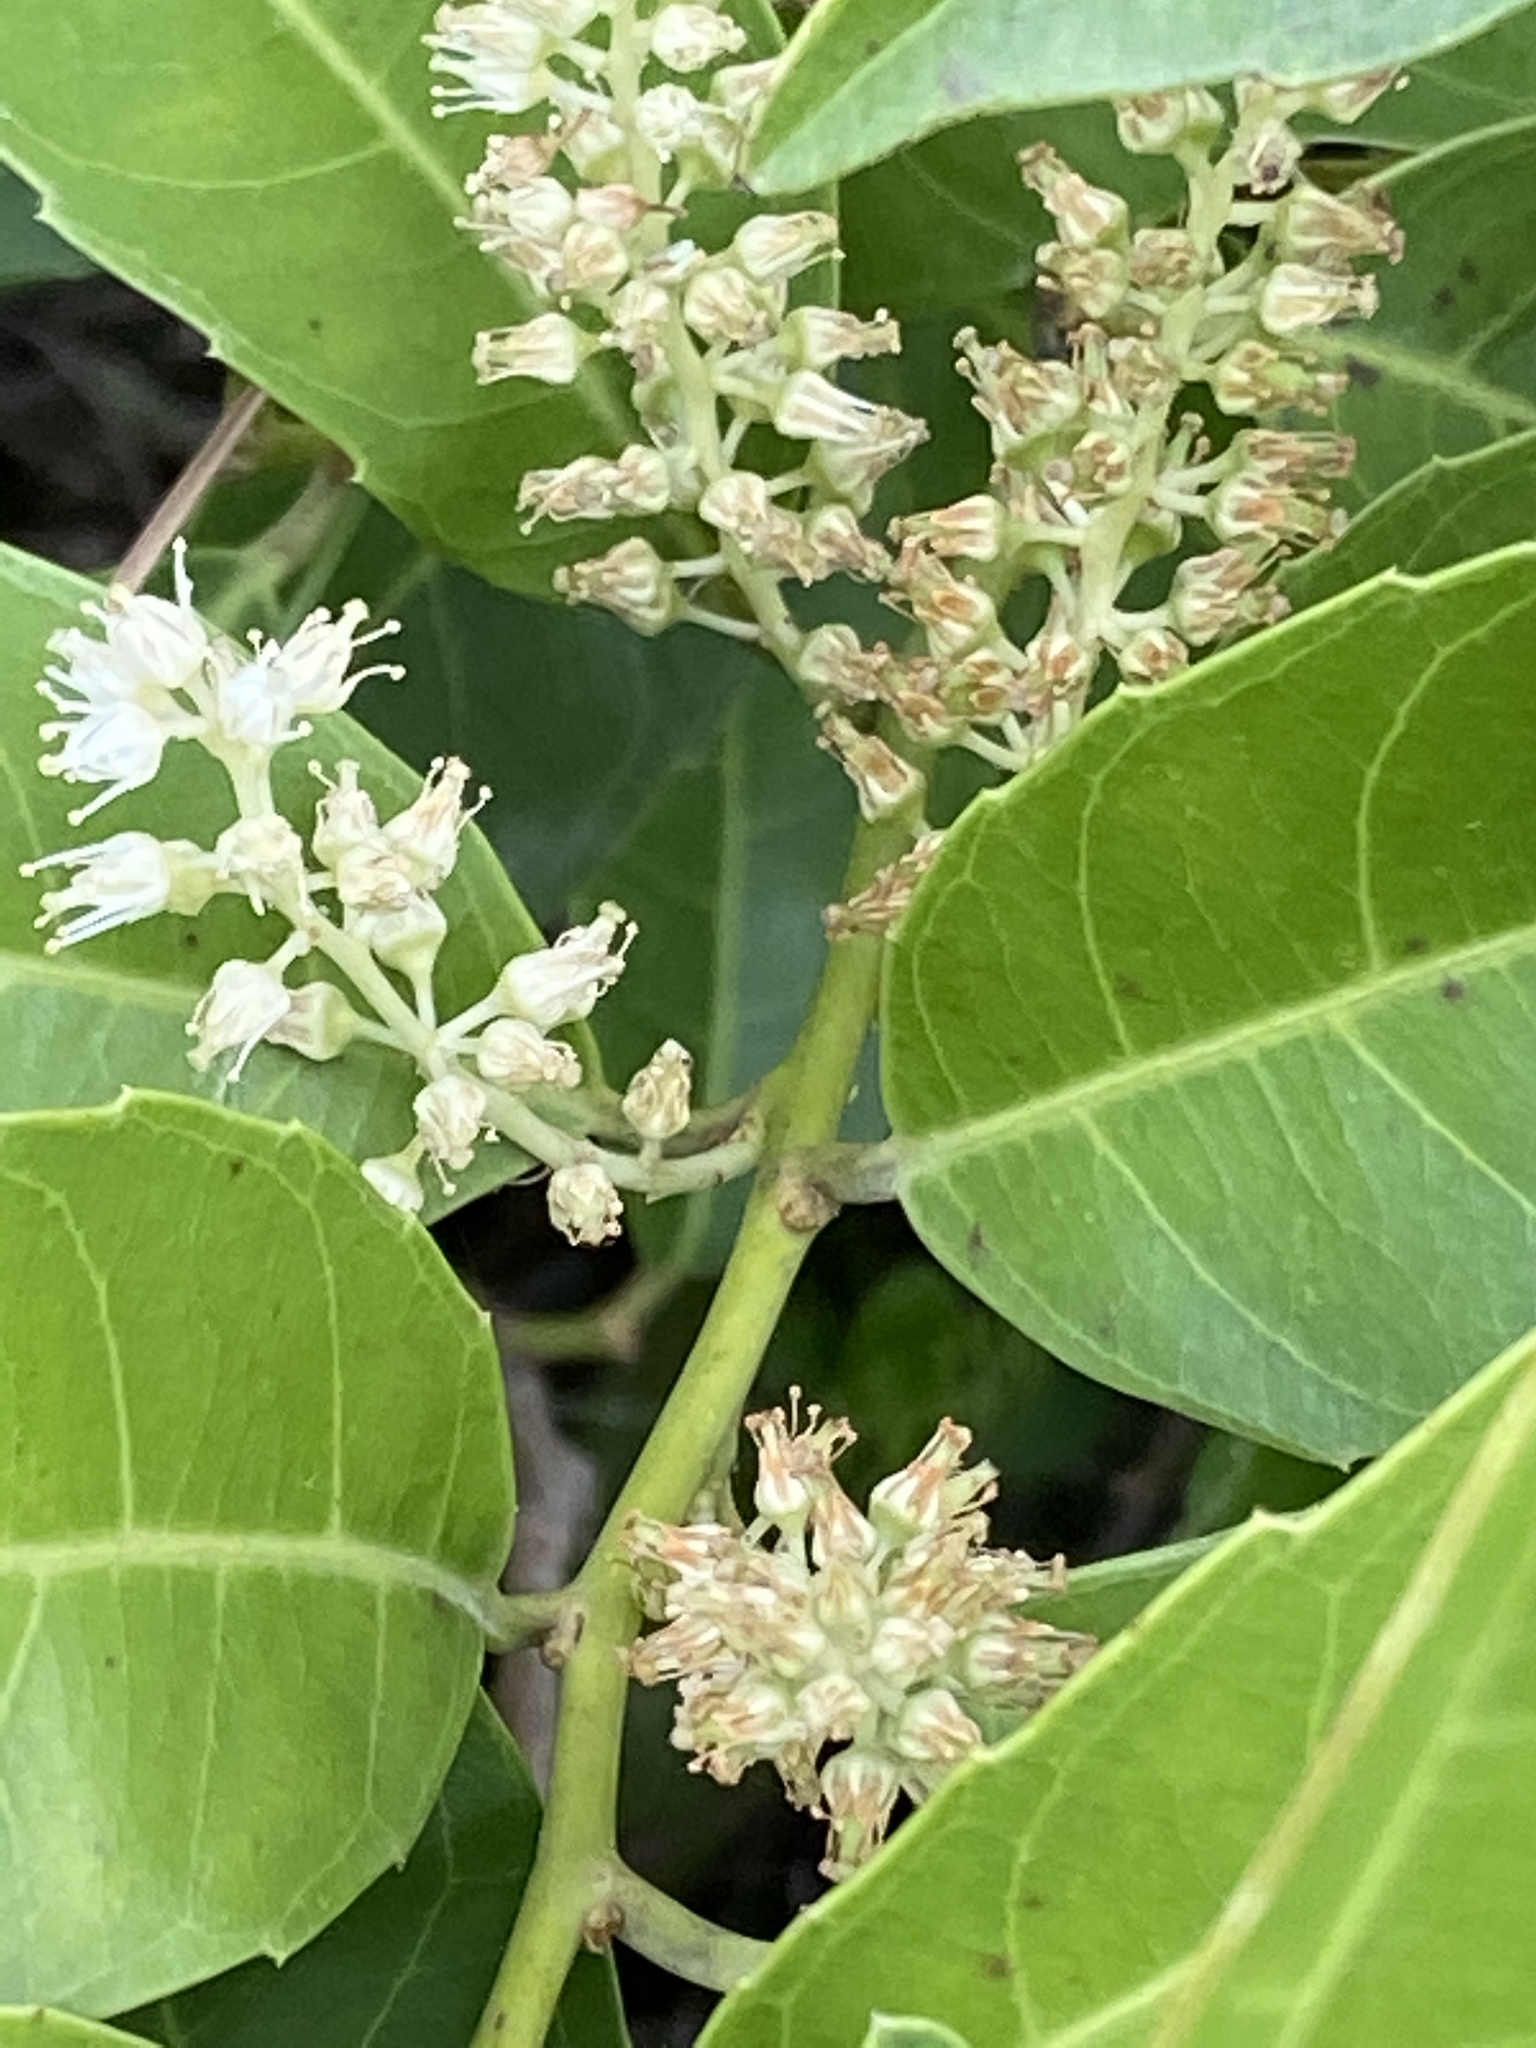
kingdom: Plantae
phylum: Tracheophyta
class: Magnoliopsida
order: Saxifragales
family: Iteaceae
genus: Itea
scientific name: Itea oldhamii
